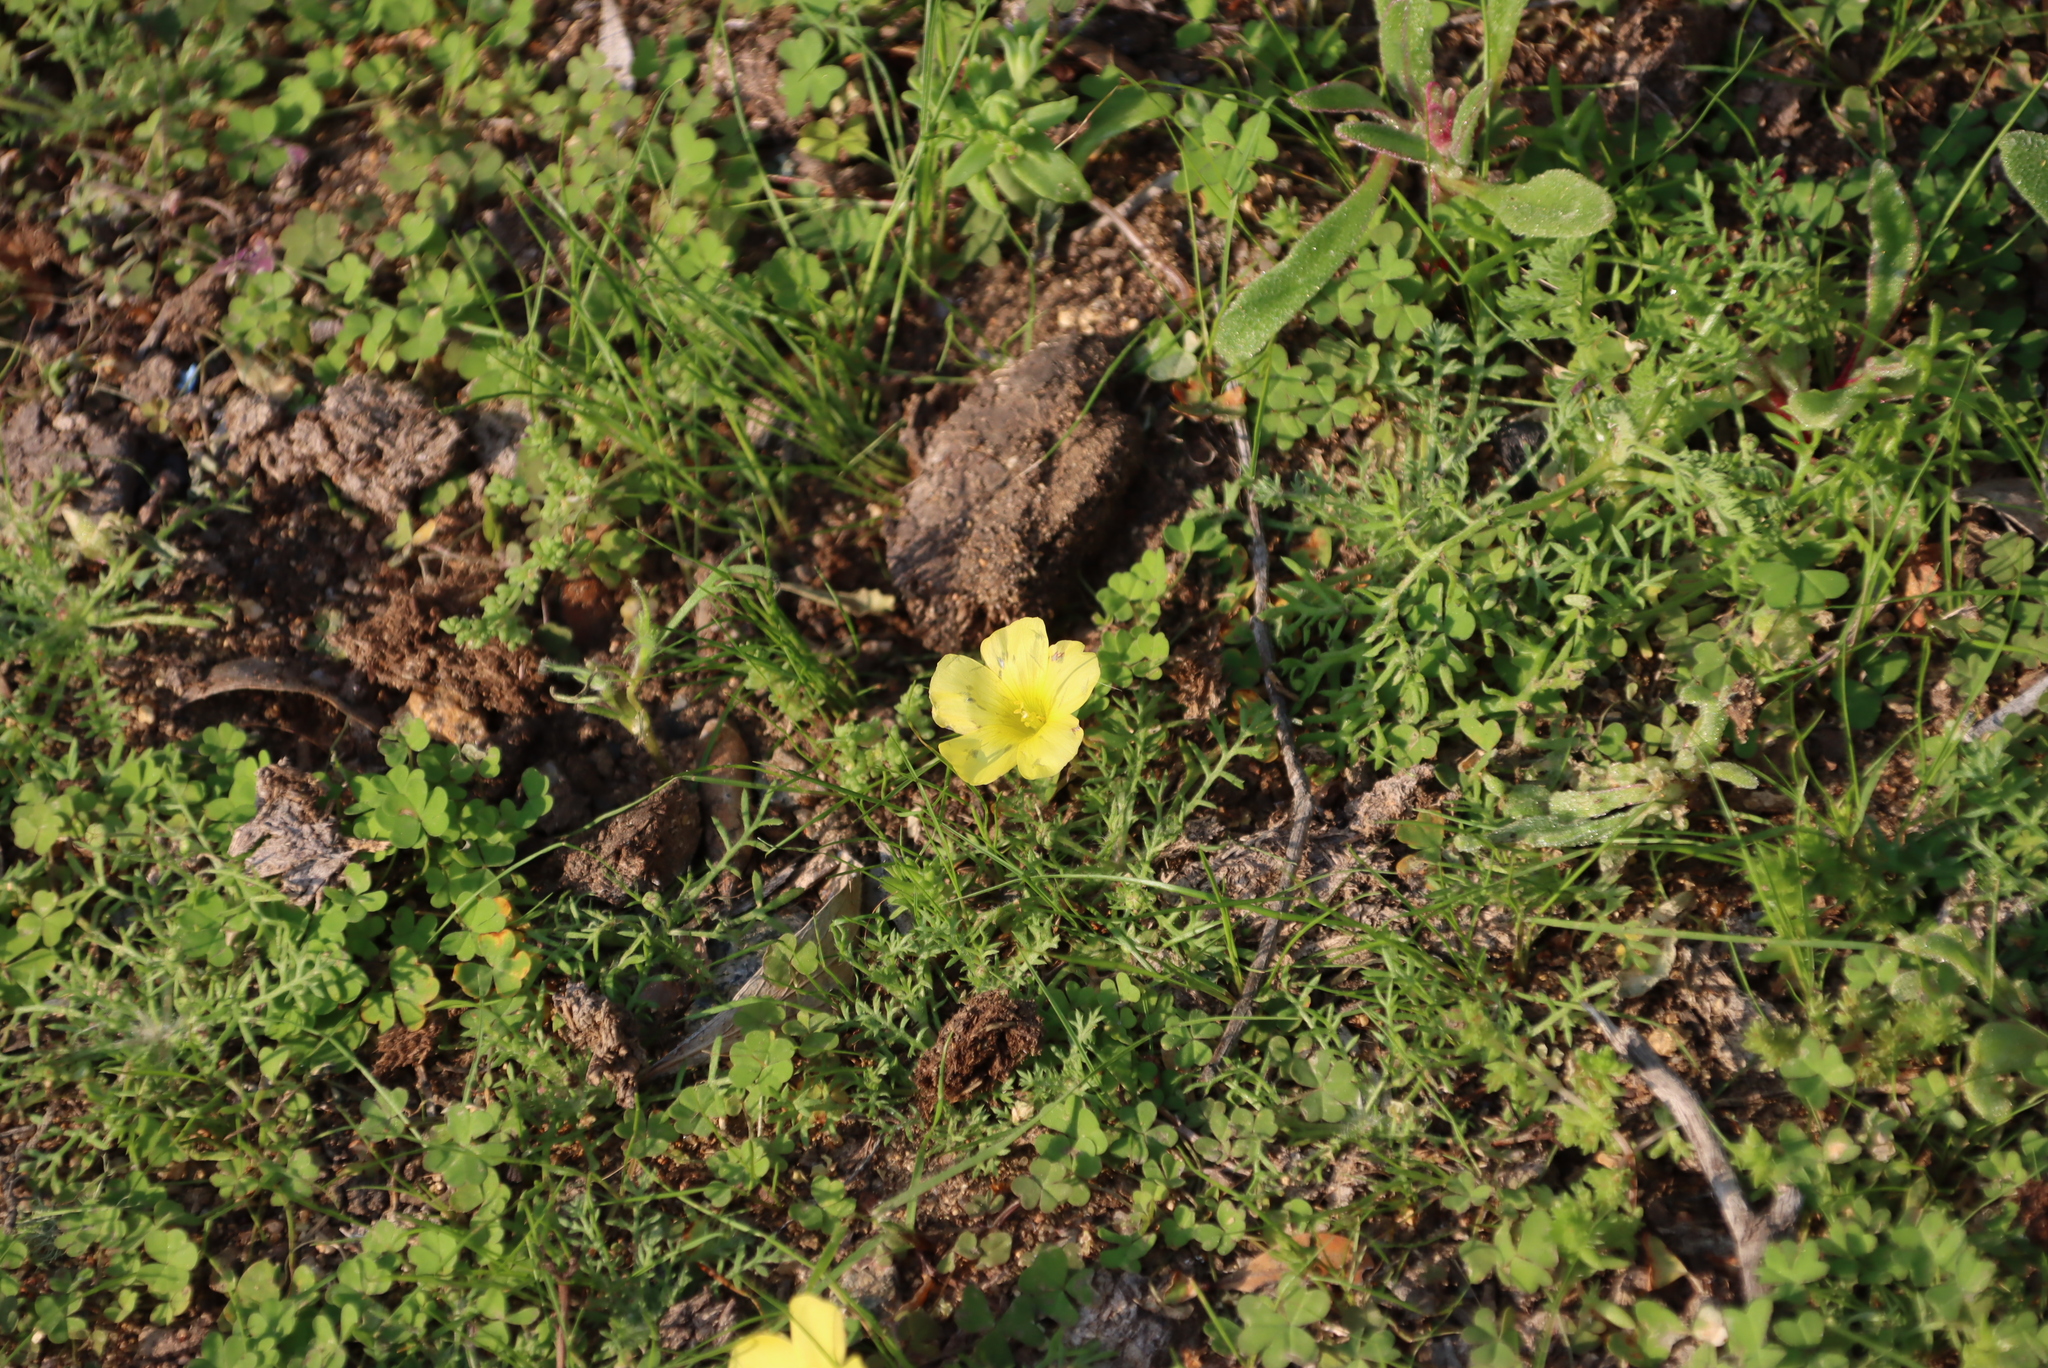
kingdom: Plantae
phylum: Tracheophyta
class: Magnoliopsida
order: Oxalidales
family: Oxalidaceae
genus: Oxalis
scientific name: Oxalis obtusa
